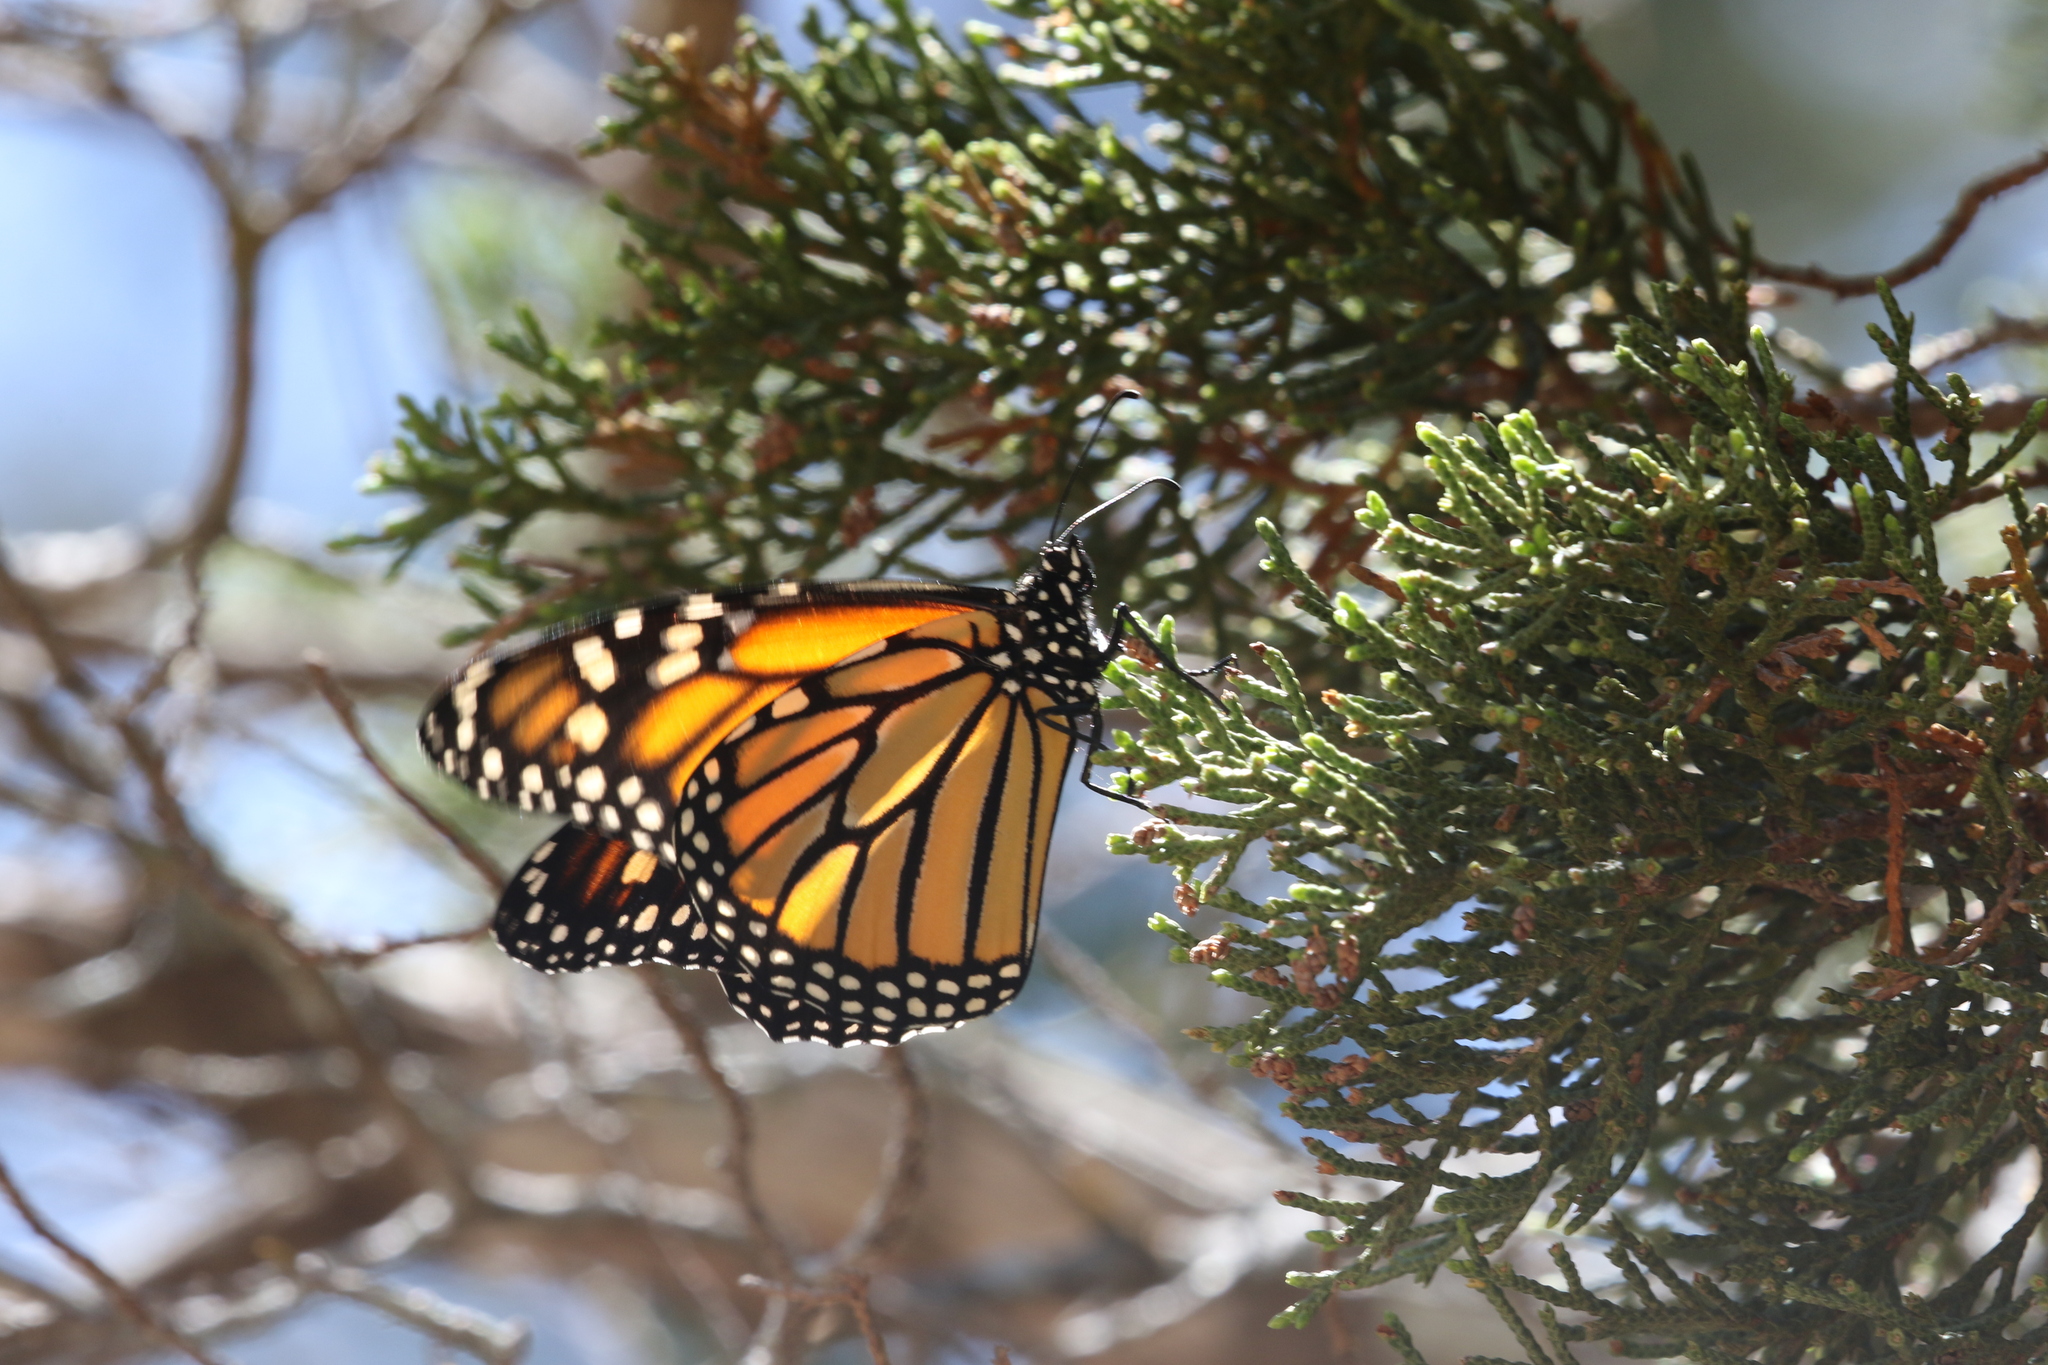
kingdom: Animalia
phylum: Arthropoda
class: Insecta
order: Lepidoptera
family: Nymphalidae
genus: Danaus
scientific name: Danaus plexippus
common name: Monarch
